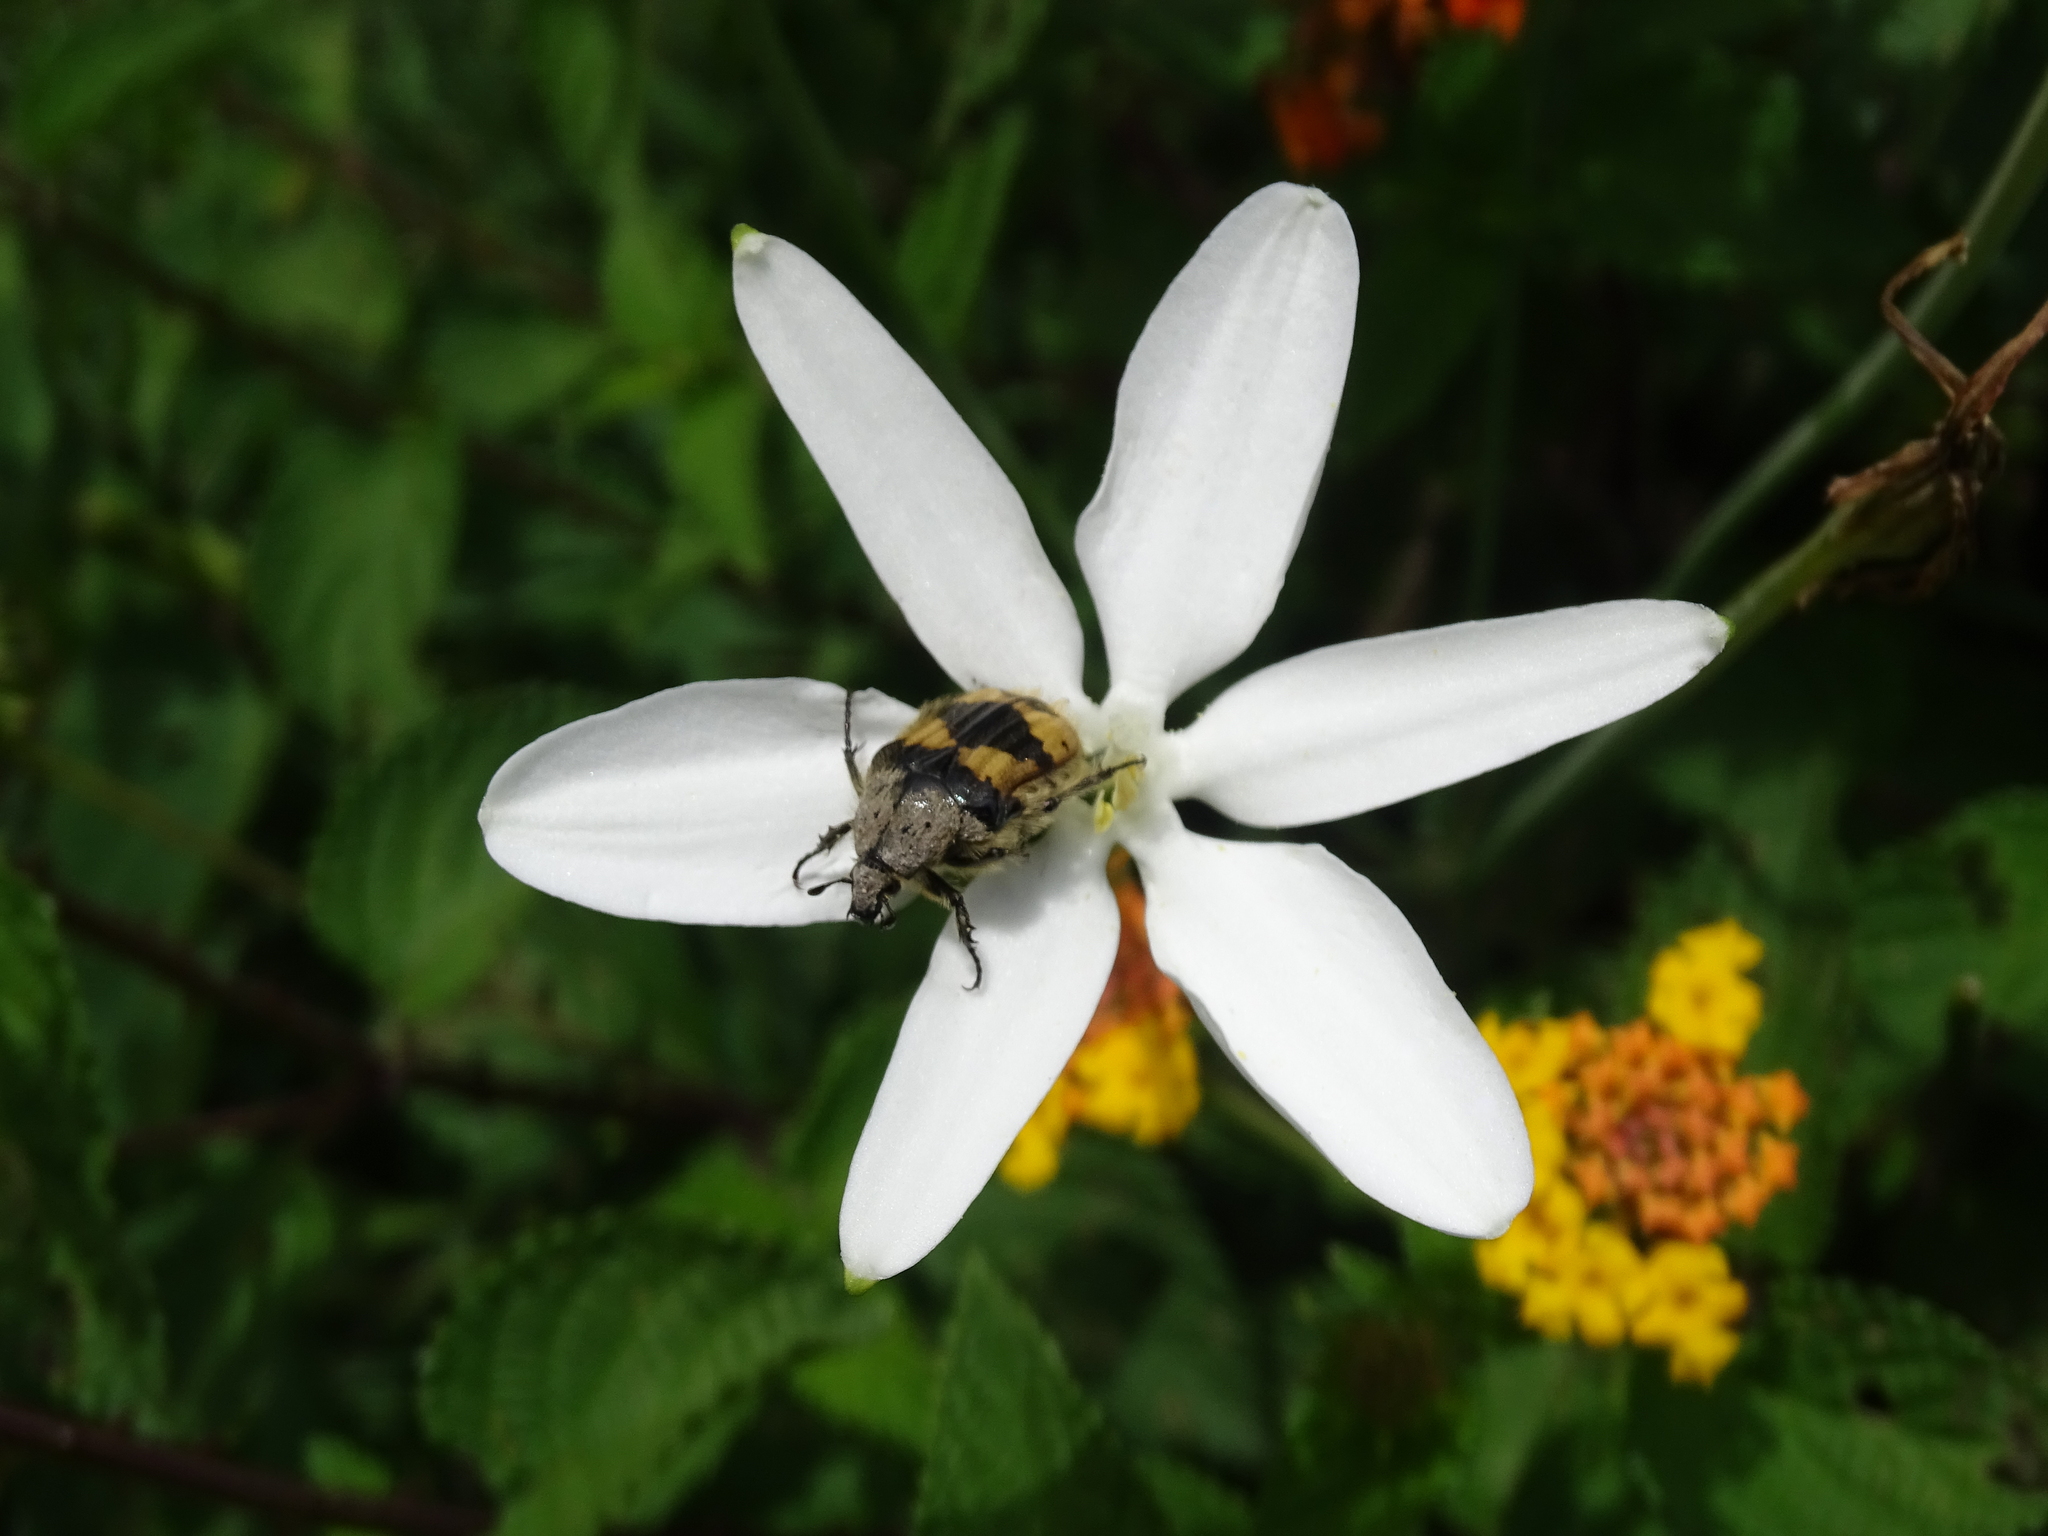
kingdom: Plantae
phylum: Tracheophyta
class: Liliopsida
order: Asparagales
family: Asparagaceae
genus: Milla
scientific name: Milla biflora
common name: Mexican-star
